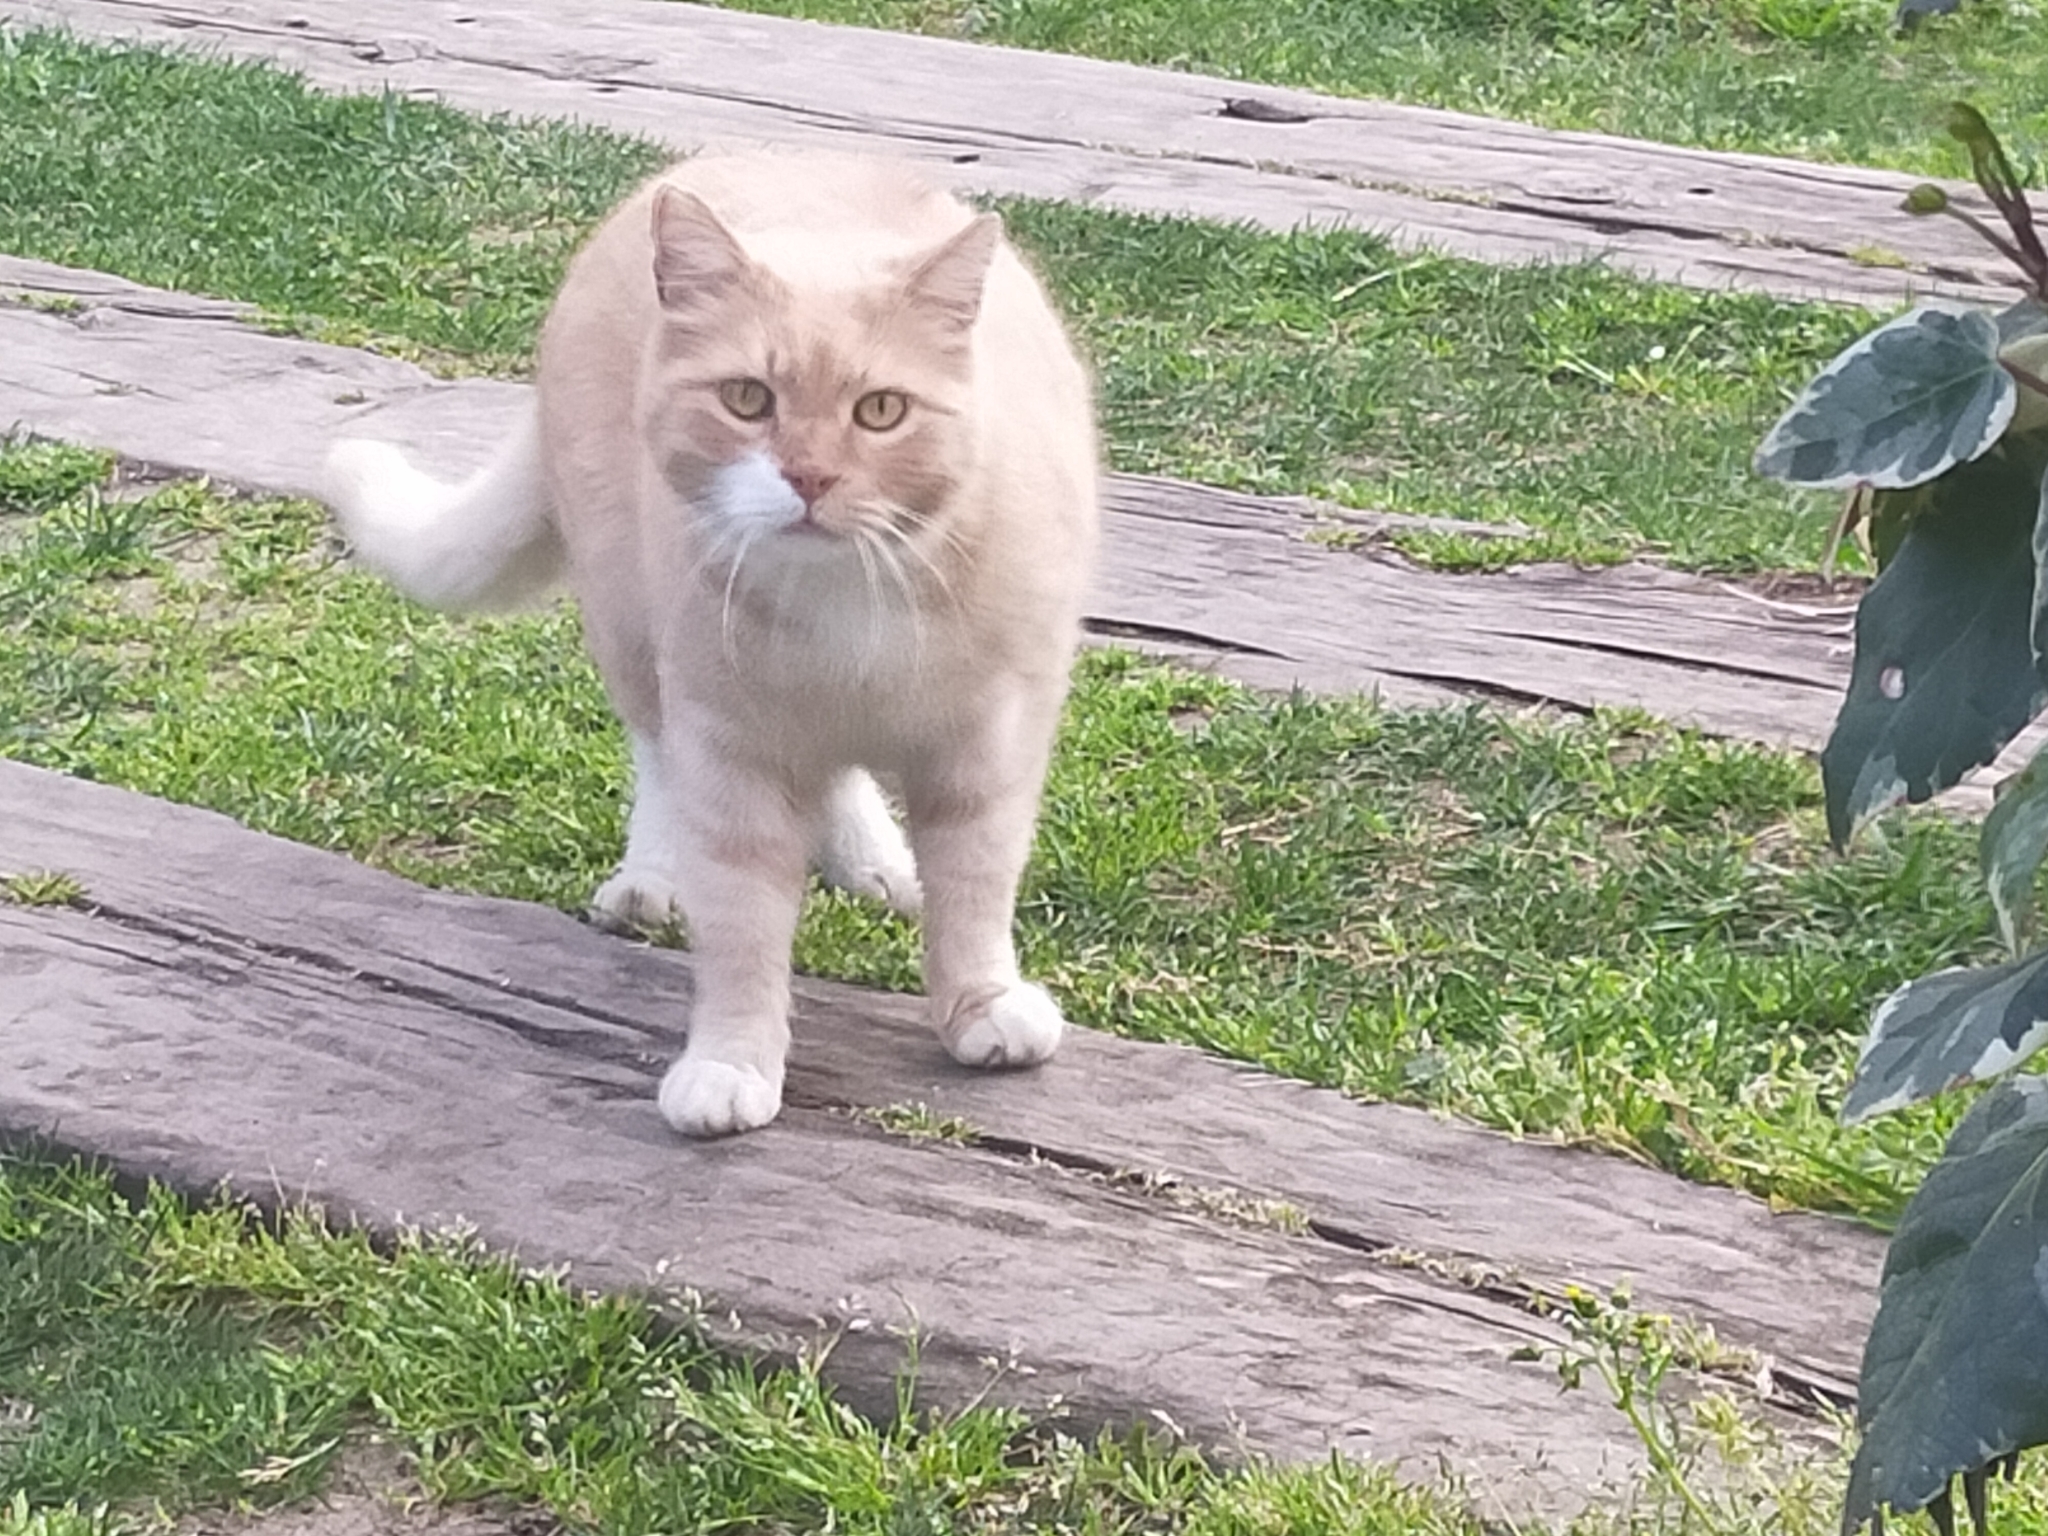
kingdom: Animalia
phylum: Chordata
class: Mammalia
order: Carnivora
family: Felidae
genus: Felis
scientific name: Felis catus
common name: Domestic cat
